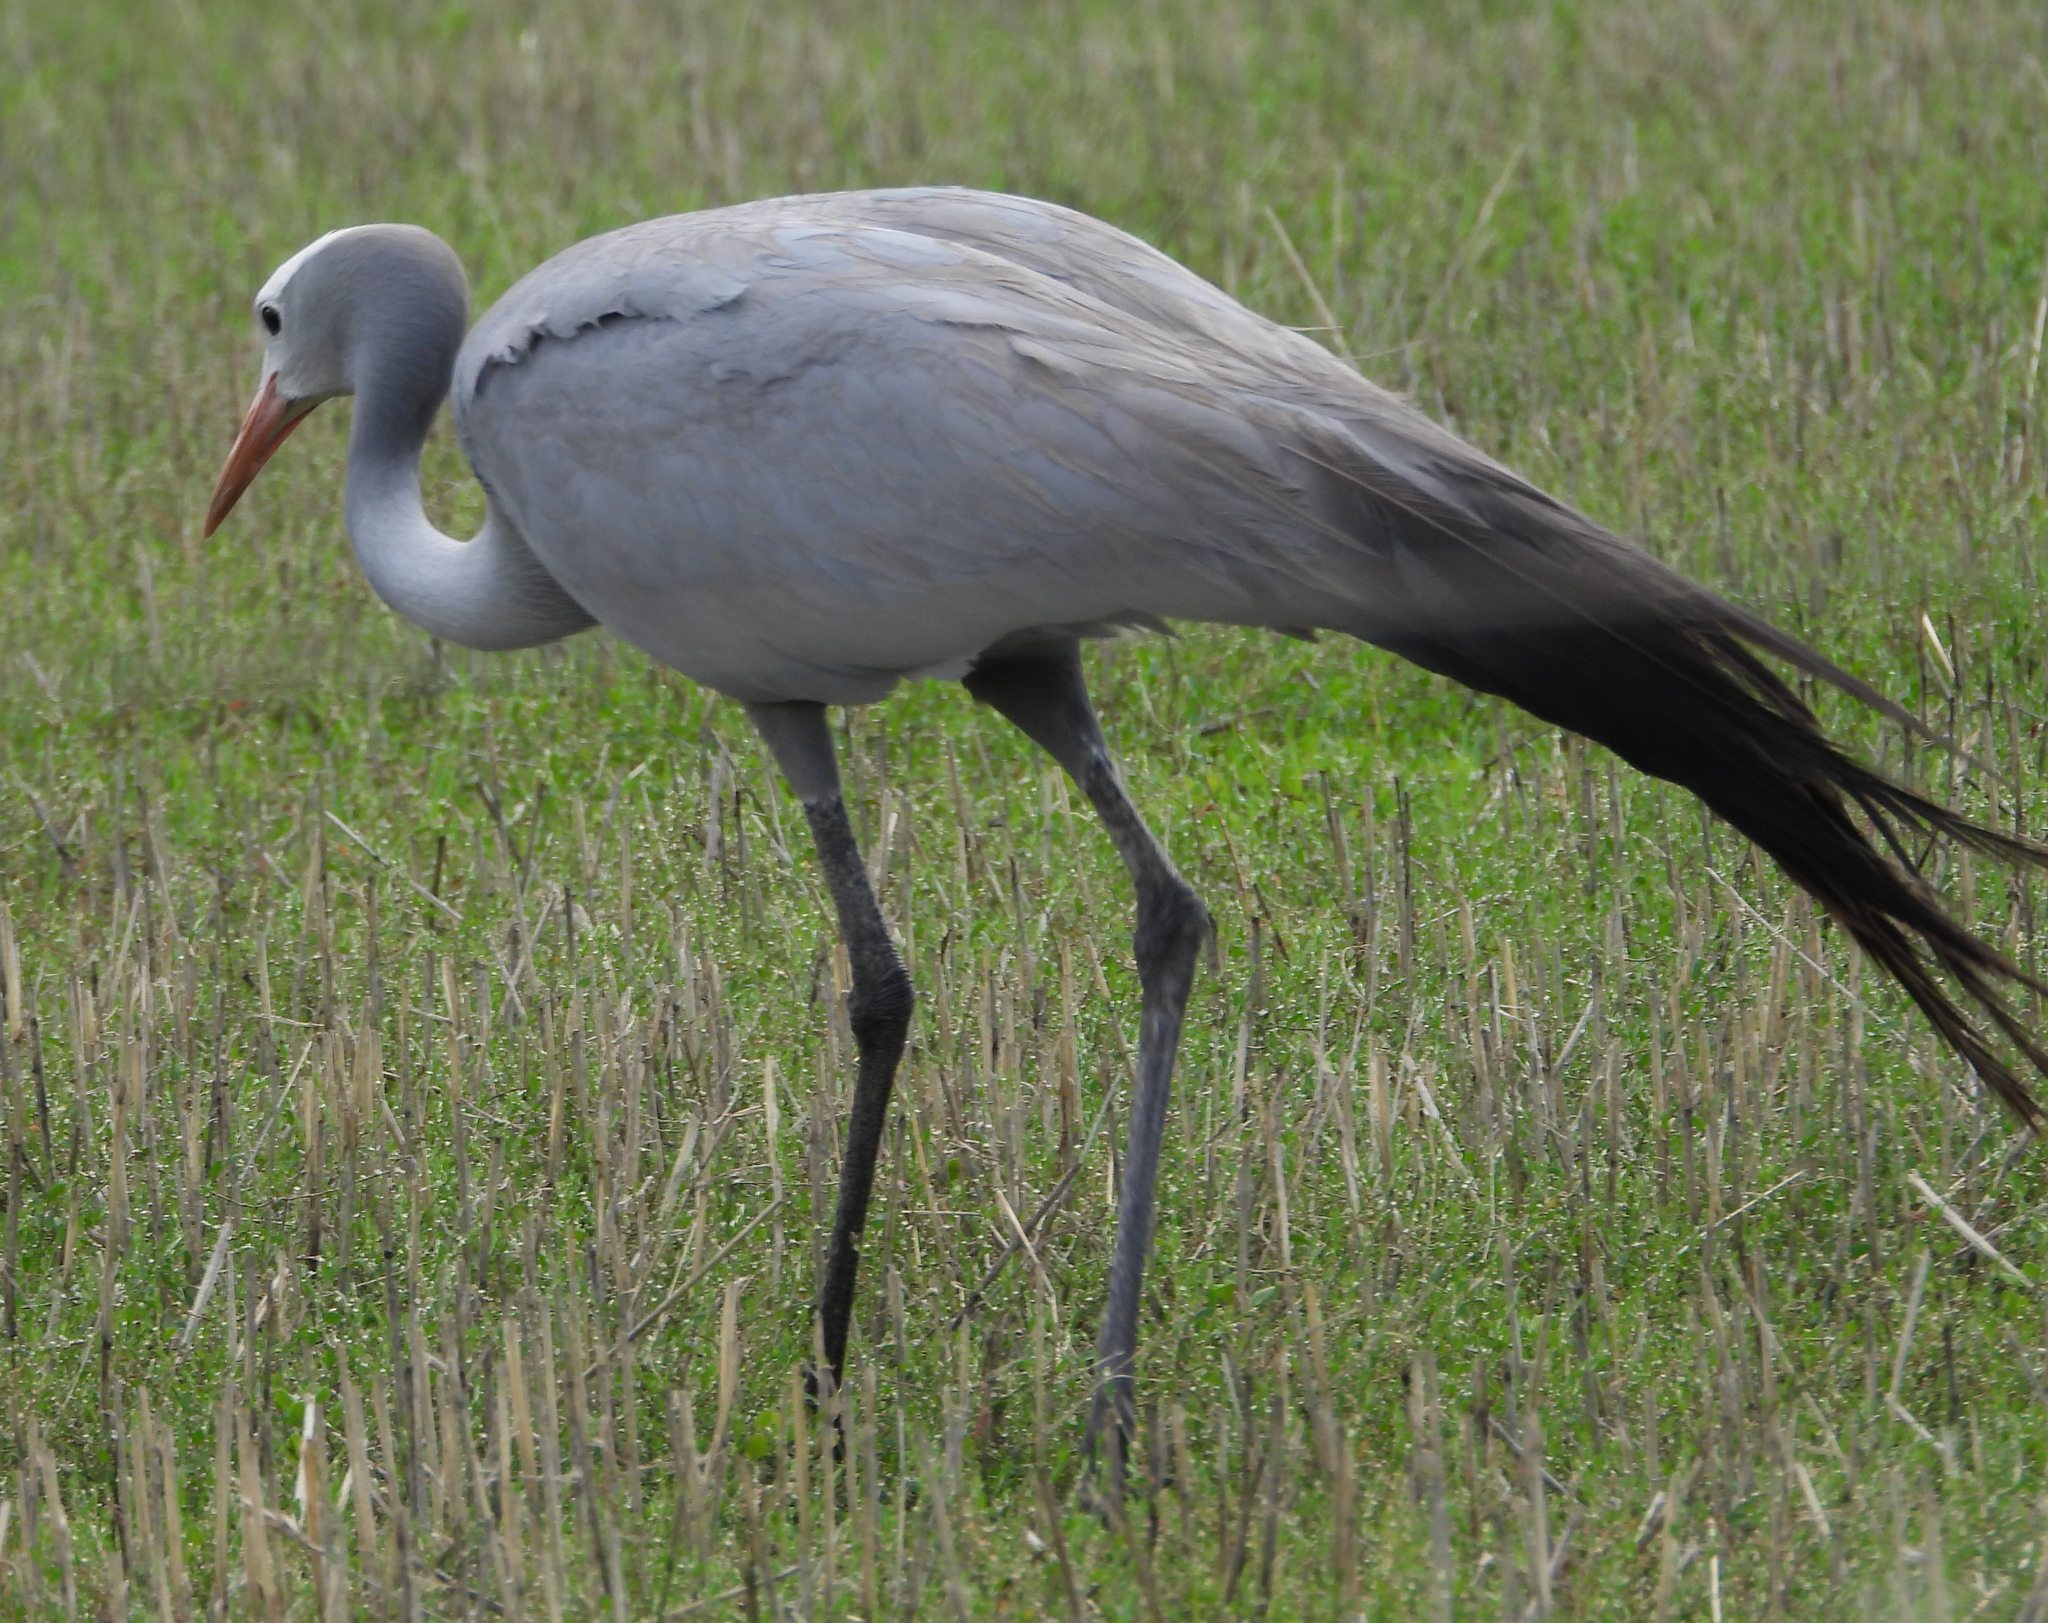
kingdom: Animalia
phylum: Chordata
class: Aves
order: Gruiformes
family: Gruidae
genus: Anthropoides
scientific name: Anthropoides paradiseus
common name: Blue crane
